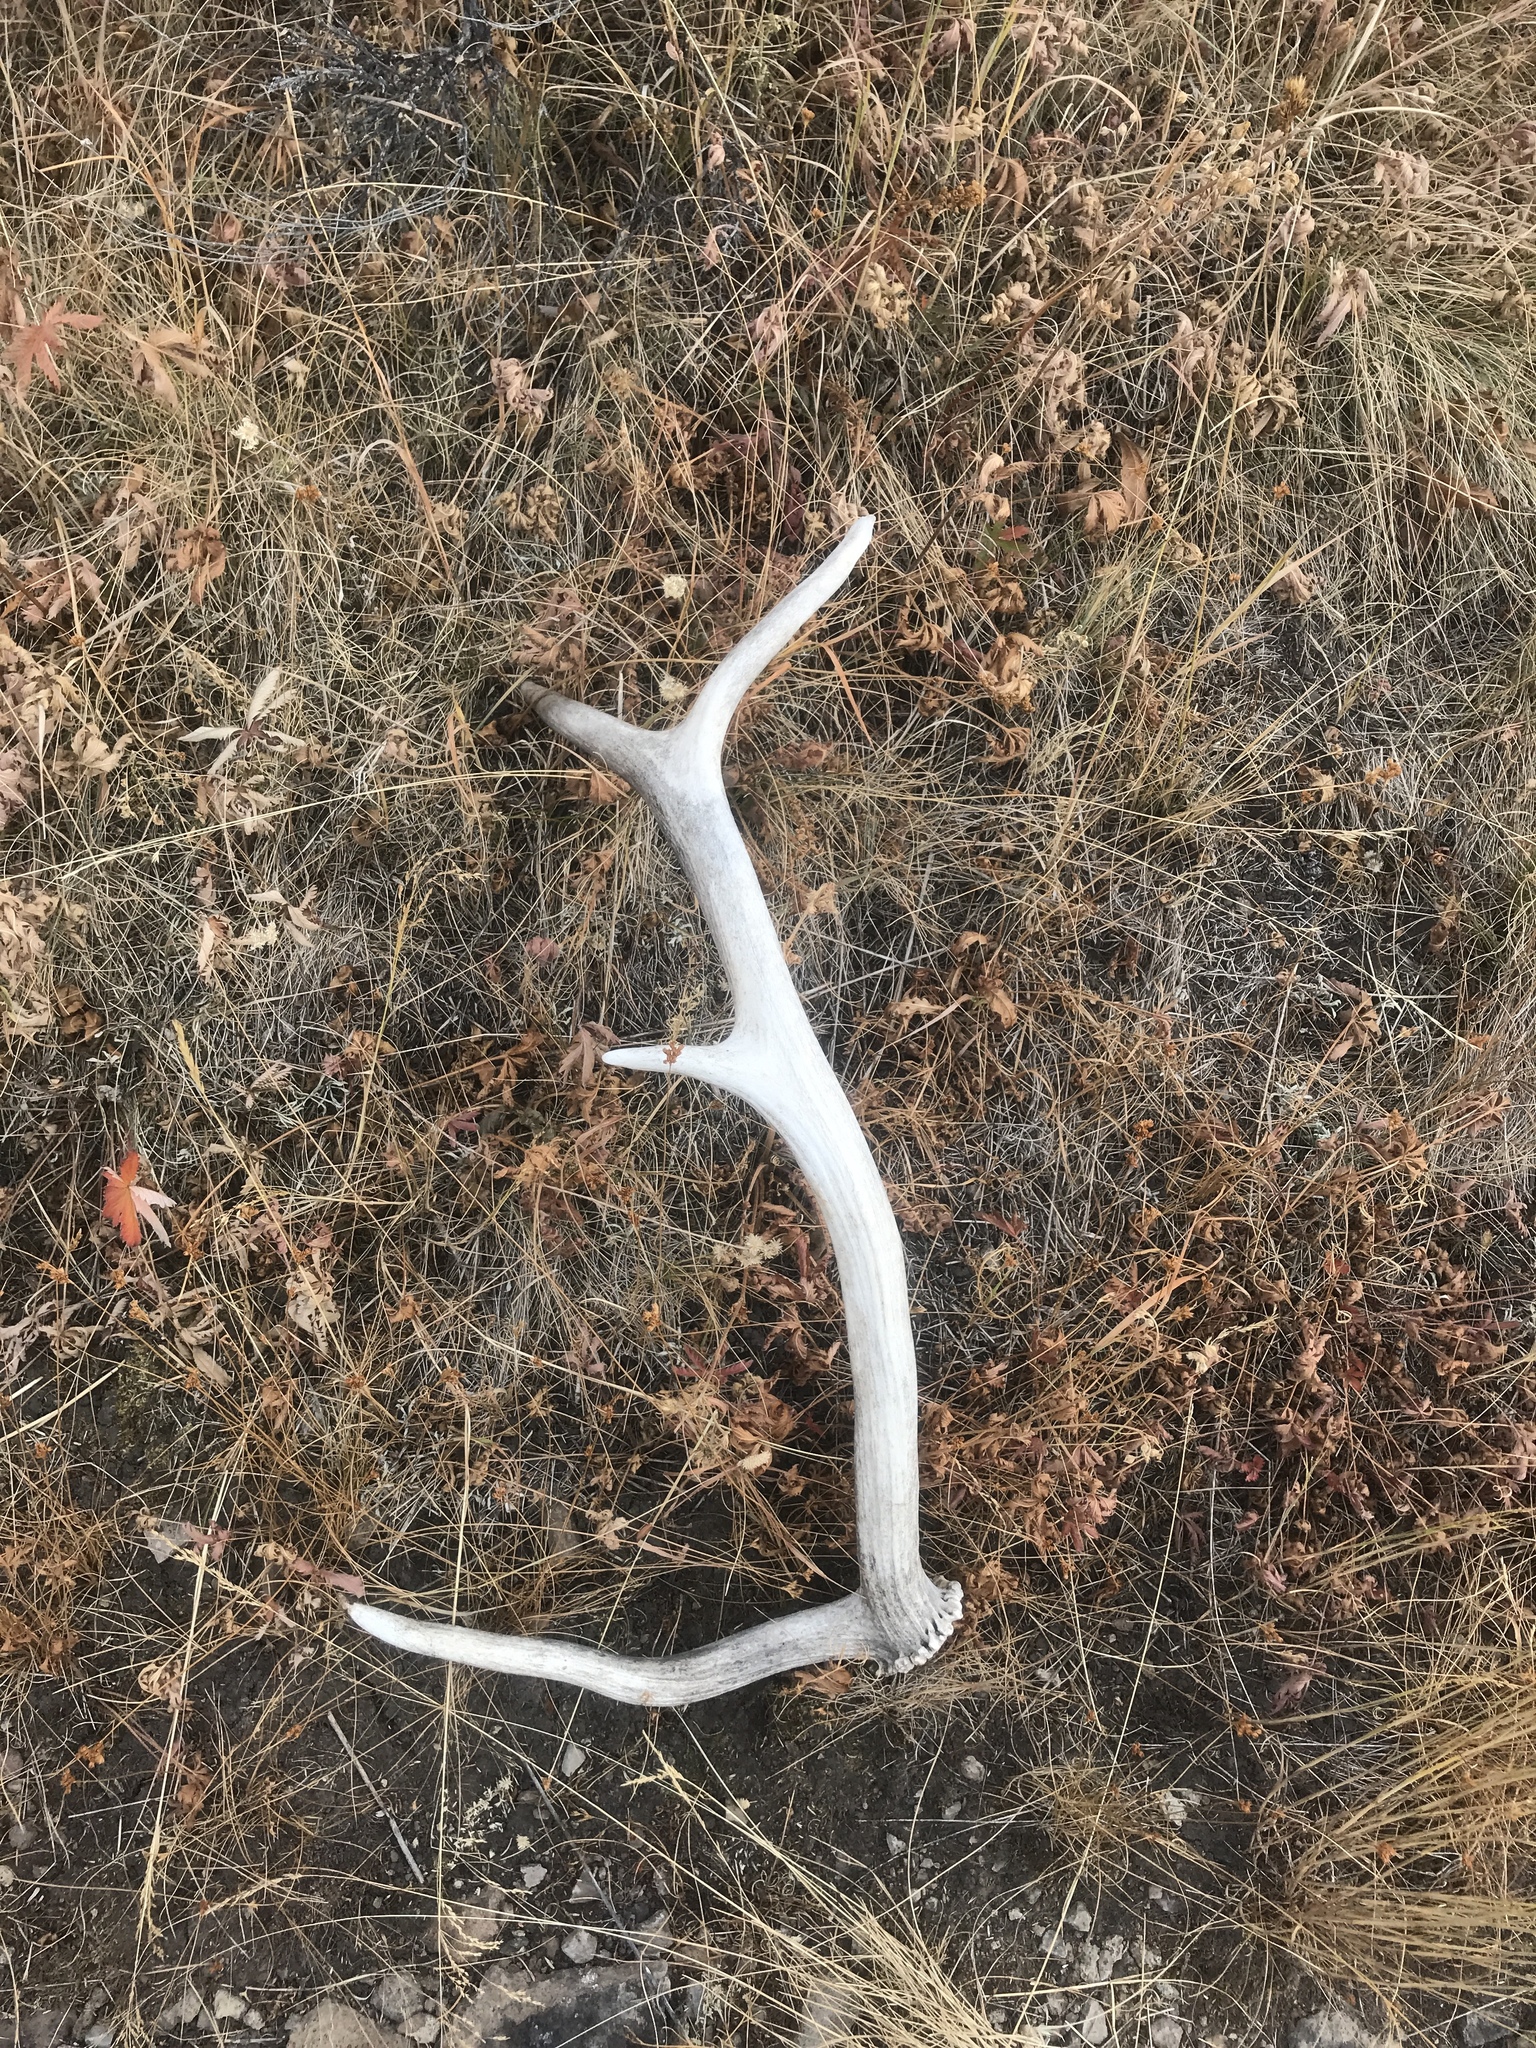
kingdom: Animalia
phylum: Chordata
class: Mammalia
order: Artiodactyla
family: Cervidae
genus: Cervus
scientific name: Cervus elaphus
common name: Red deer
